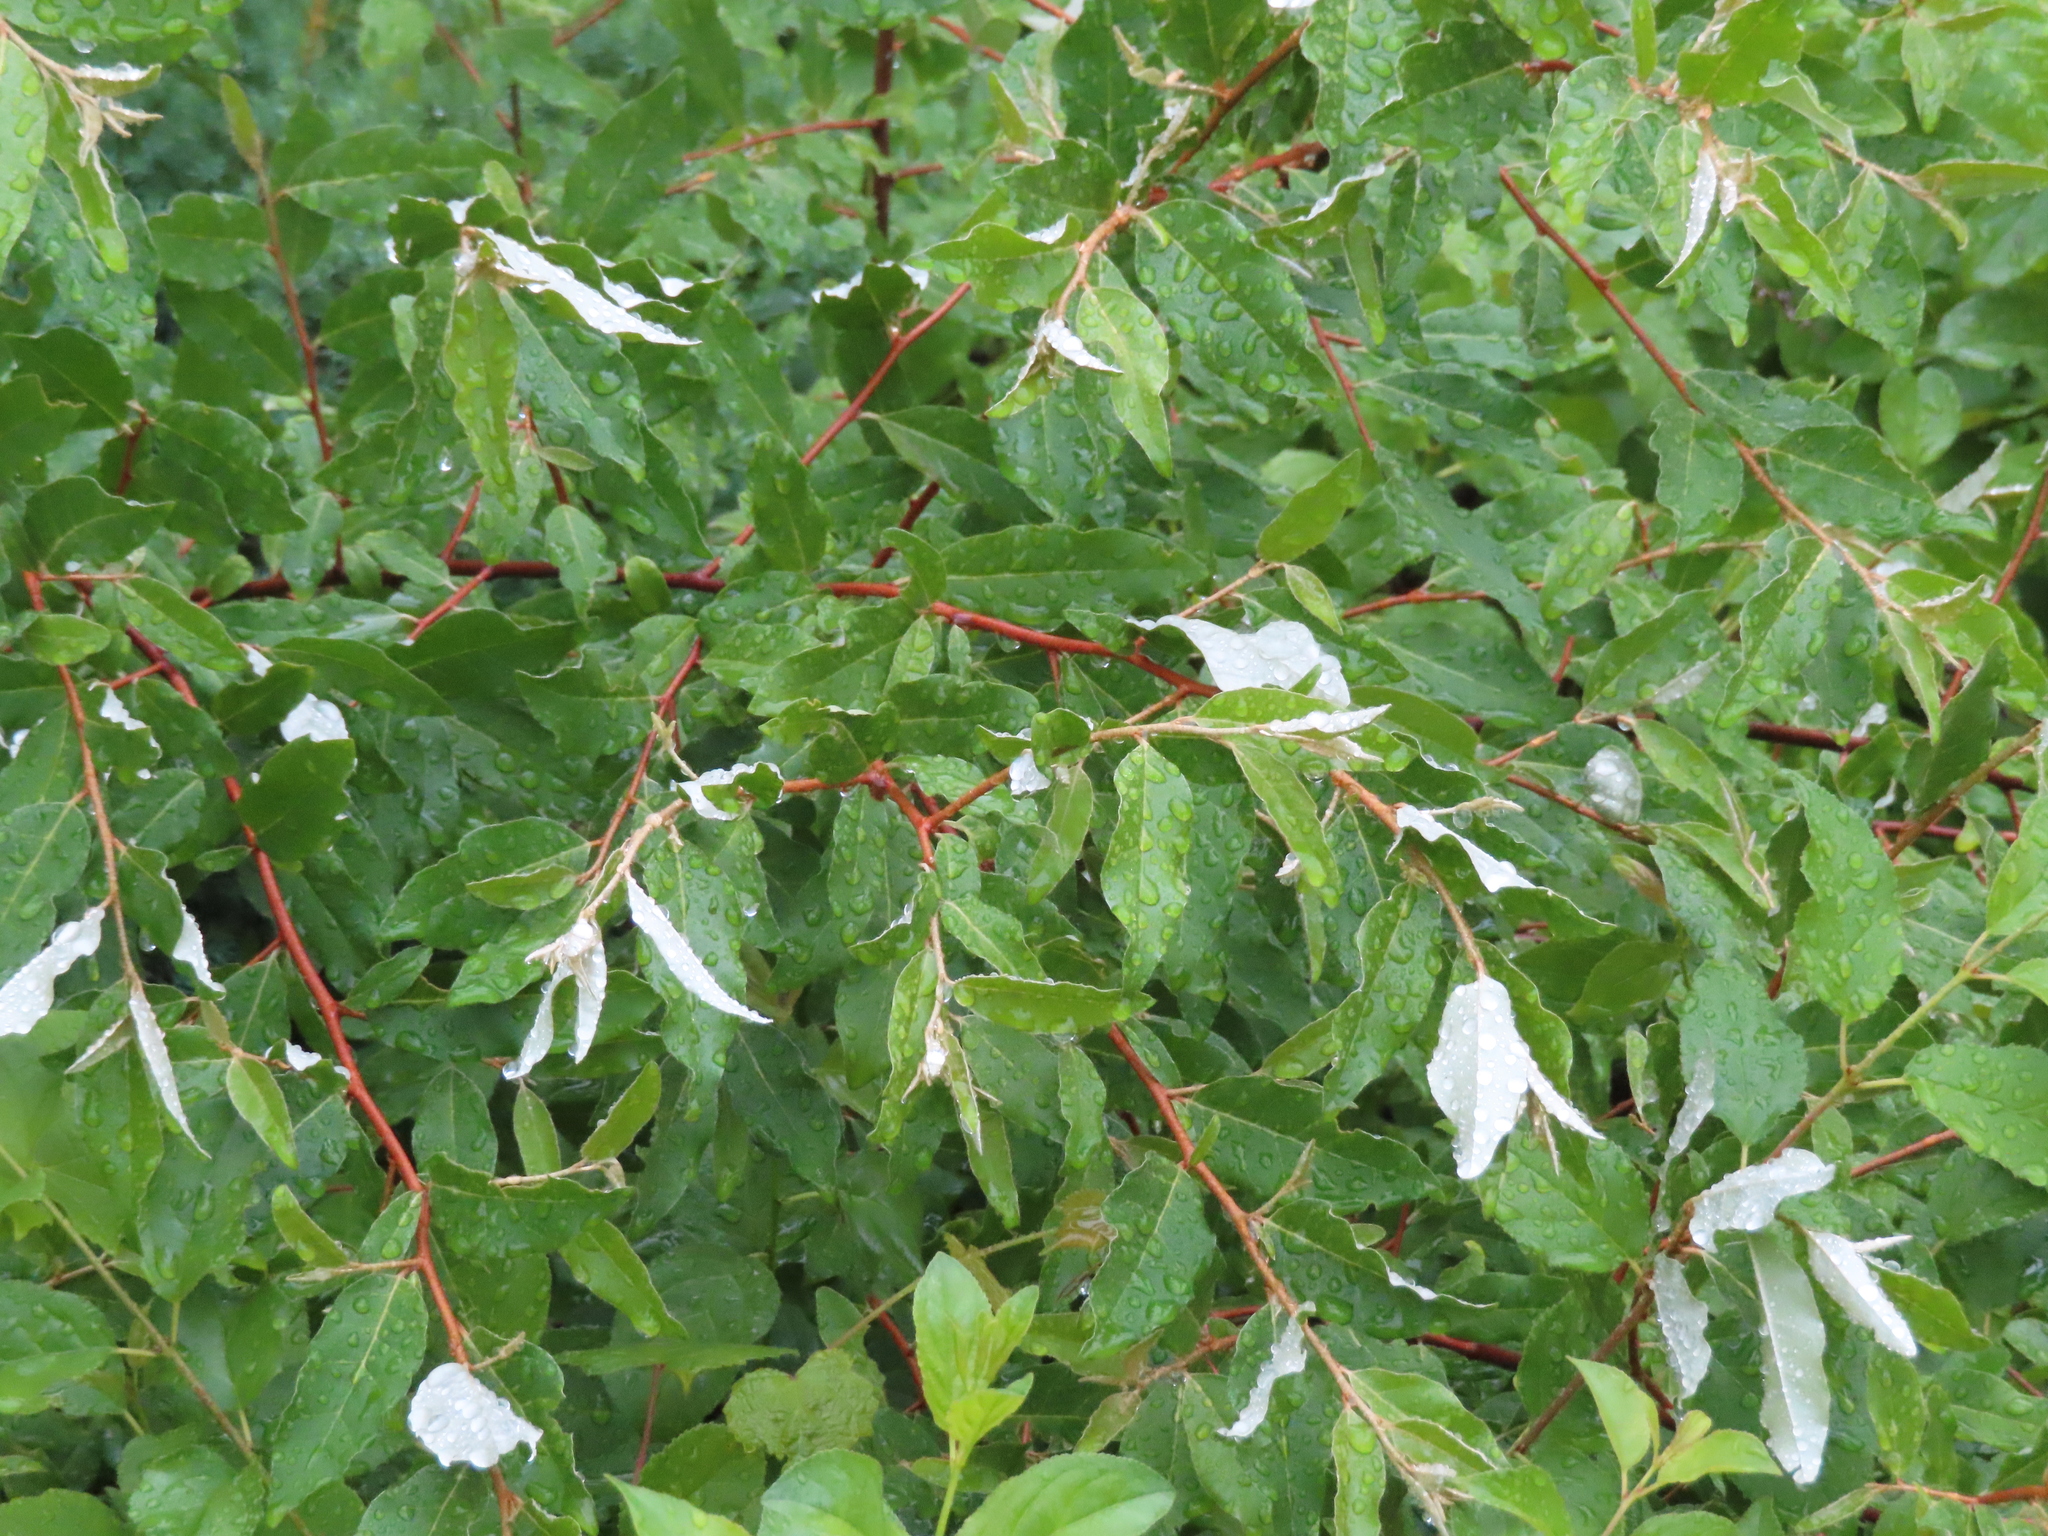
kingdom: Plantae
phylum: Tracheophyta
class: Magnoliopsida
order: Rosales
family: Elaeagnaceae
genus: Elaeagnus
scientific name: Elaeagnus umbellata
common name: Autumn olive
